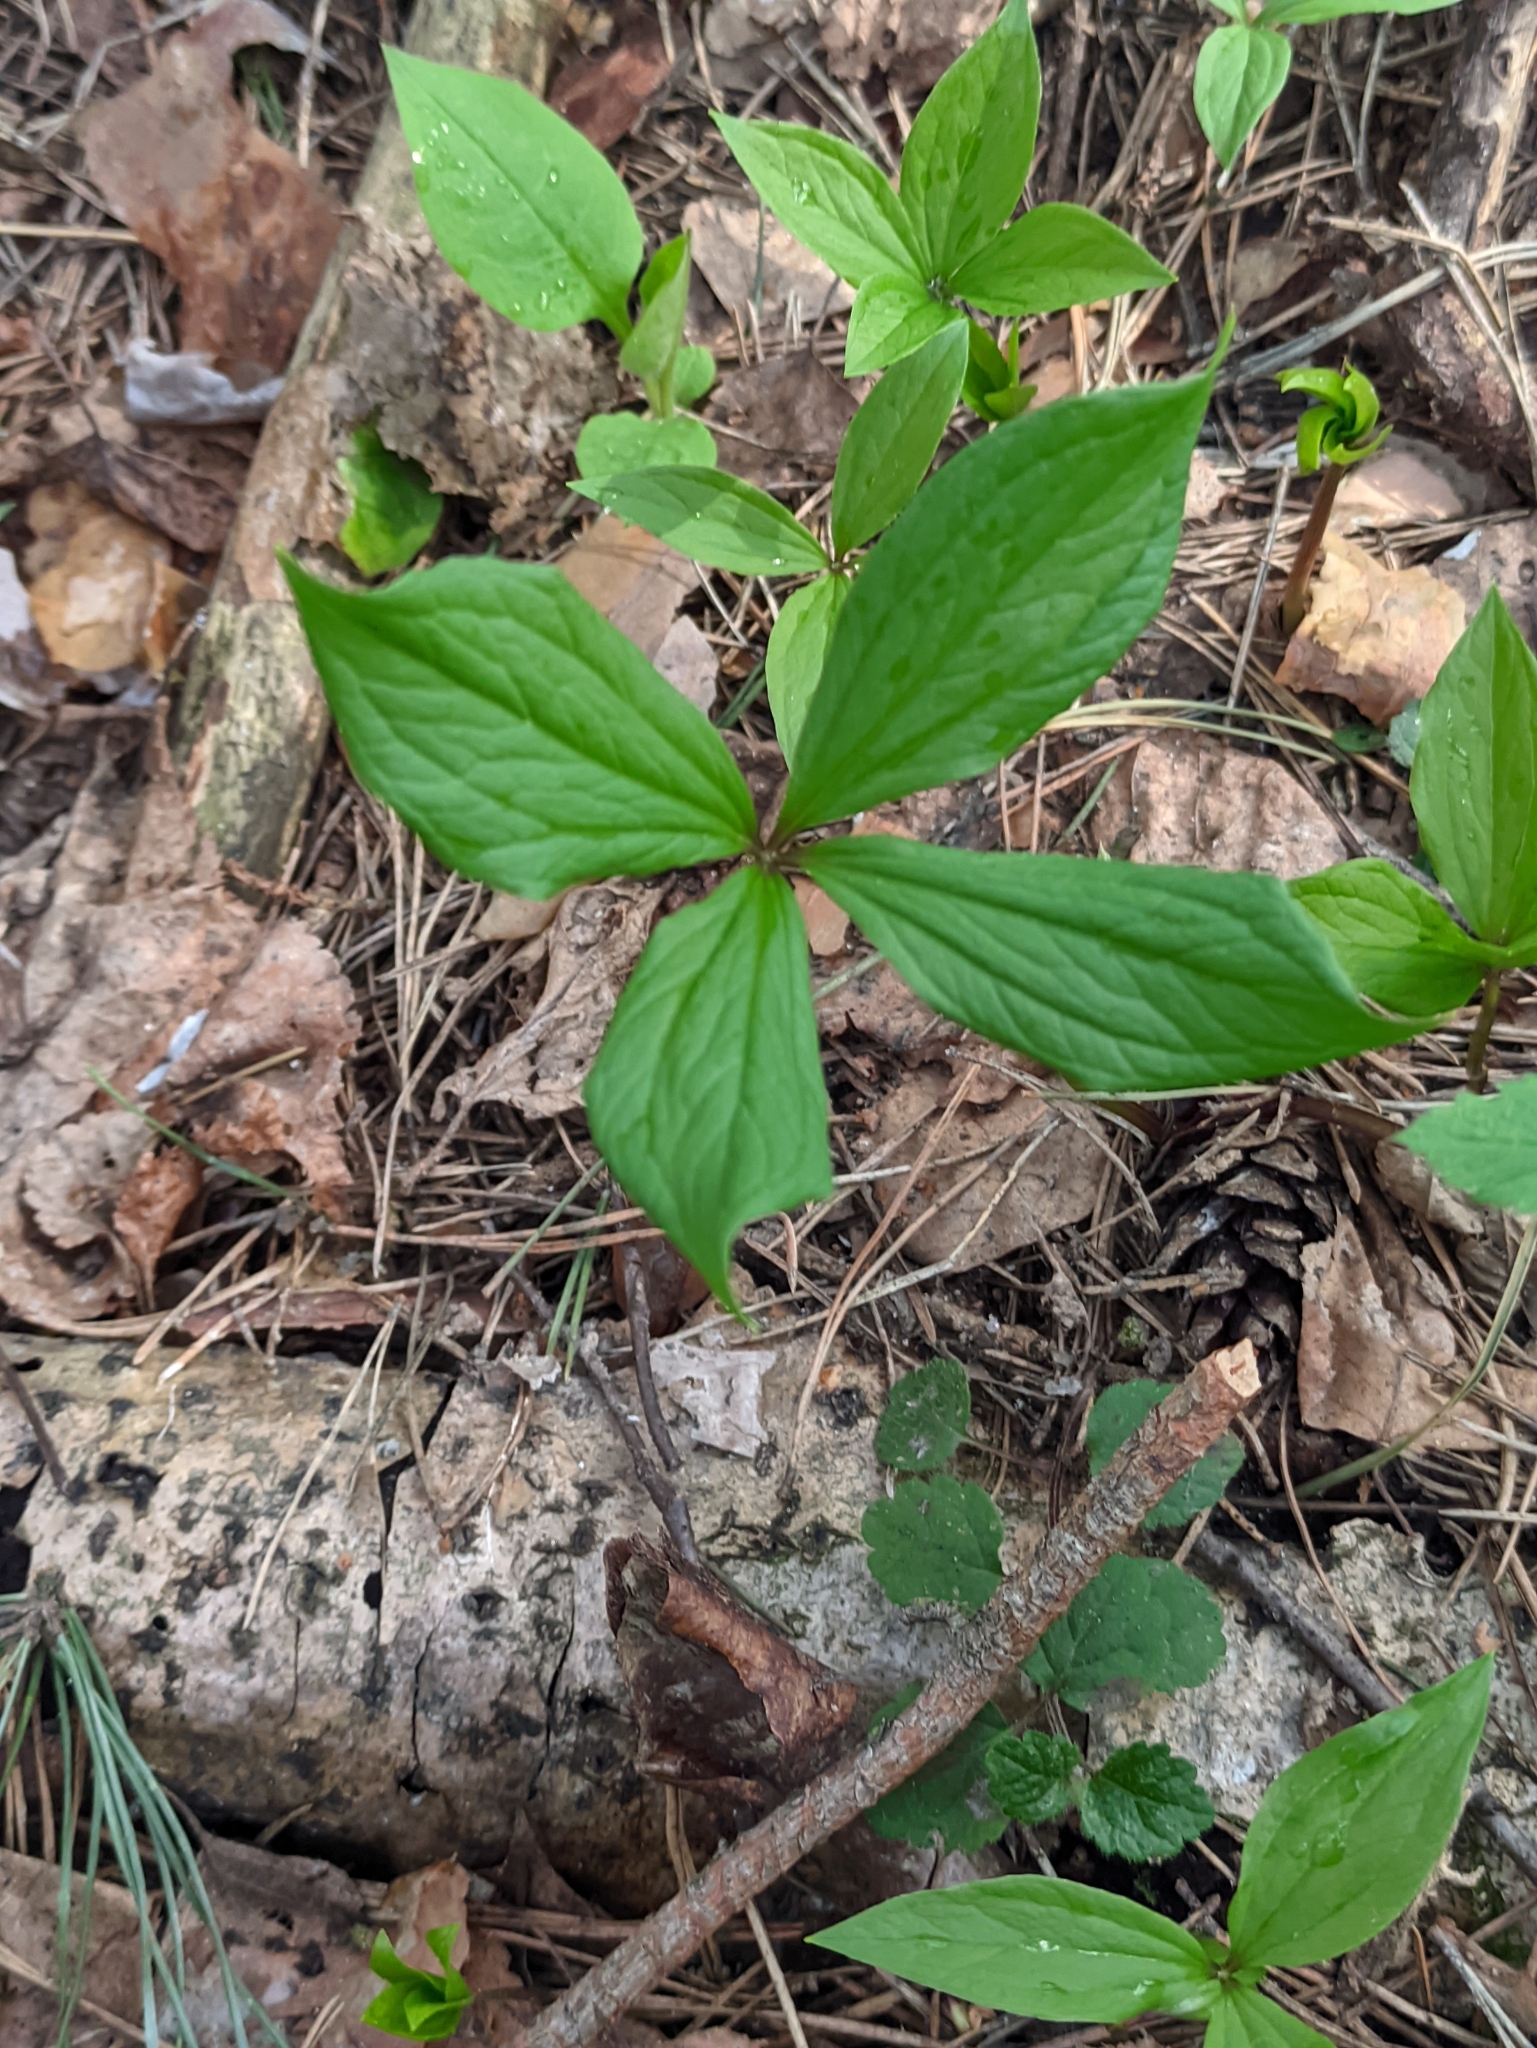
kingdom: Plantae
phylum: Tracheophyta
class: Liliopsida
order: Liliales
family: Melanthiaceae
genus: Paris
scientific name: Paris quadrifolia
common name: Herb-paris
